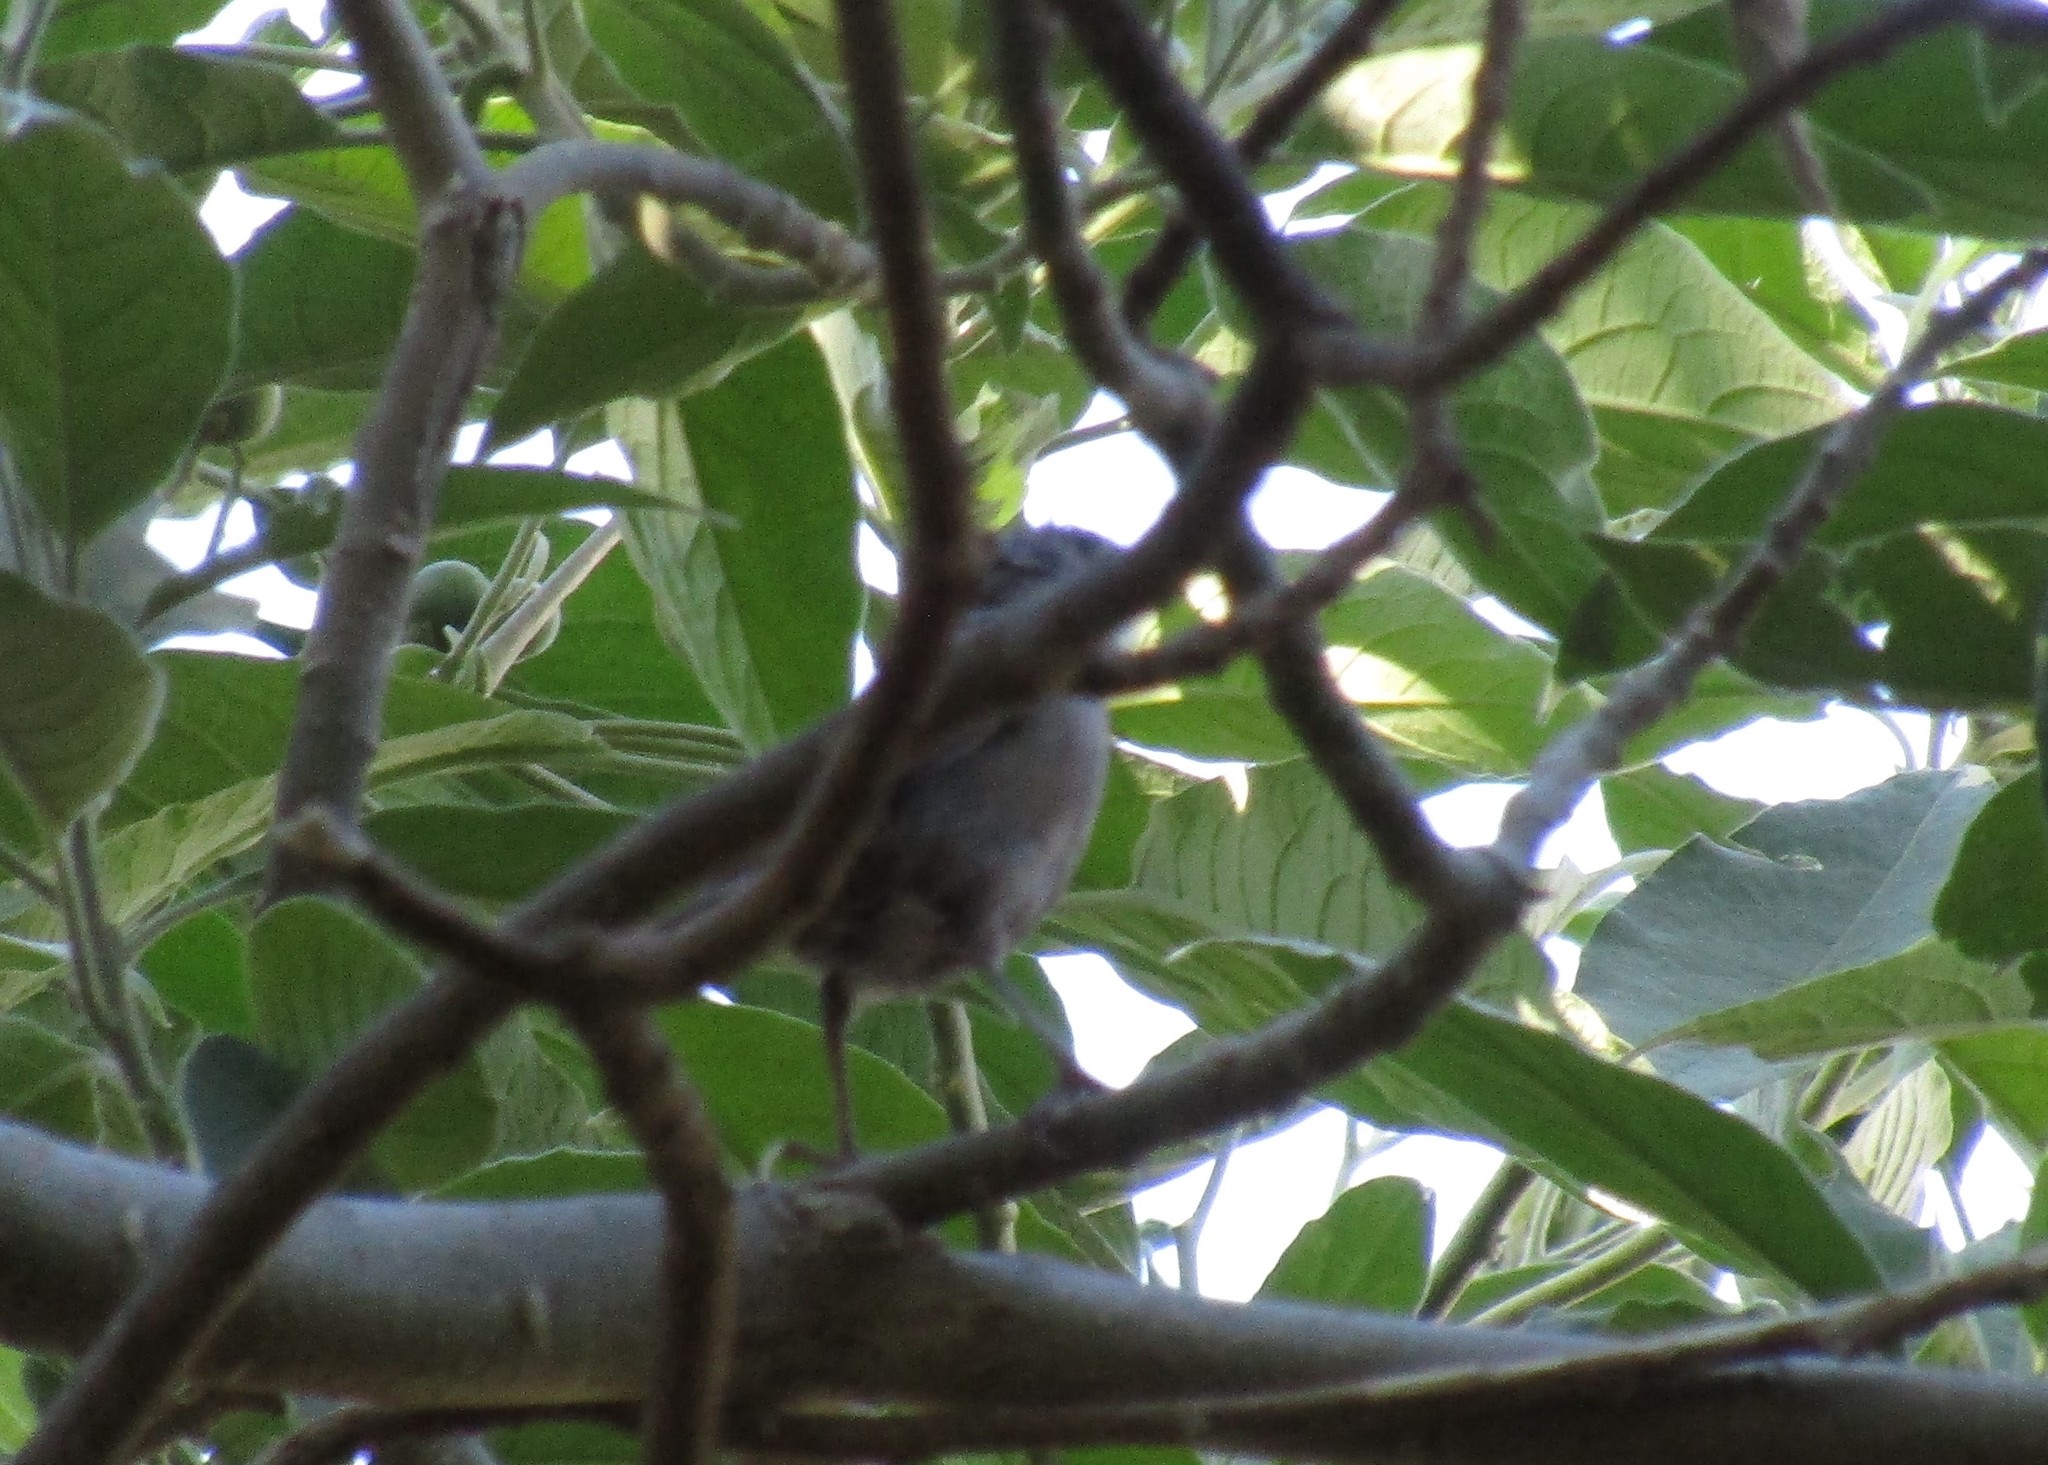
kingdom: Animalia
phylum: Chordata
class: Aves
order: Passeriformes
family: Troglodytidae
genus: Troglodytes
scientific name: Troglodytes aedon
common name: House wren
